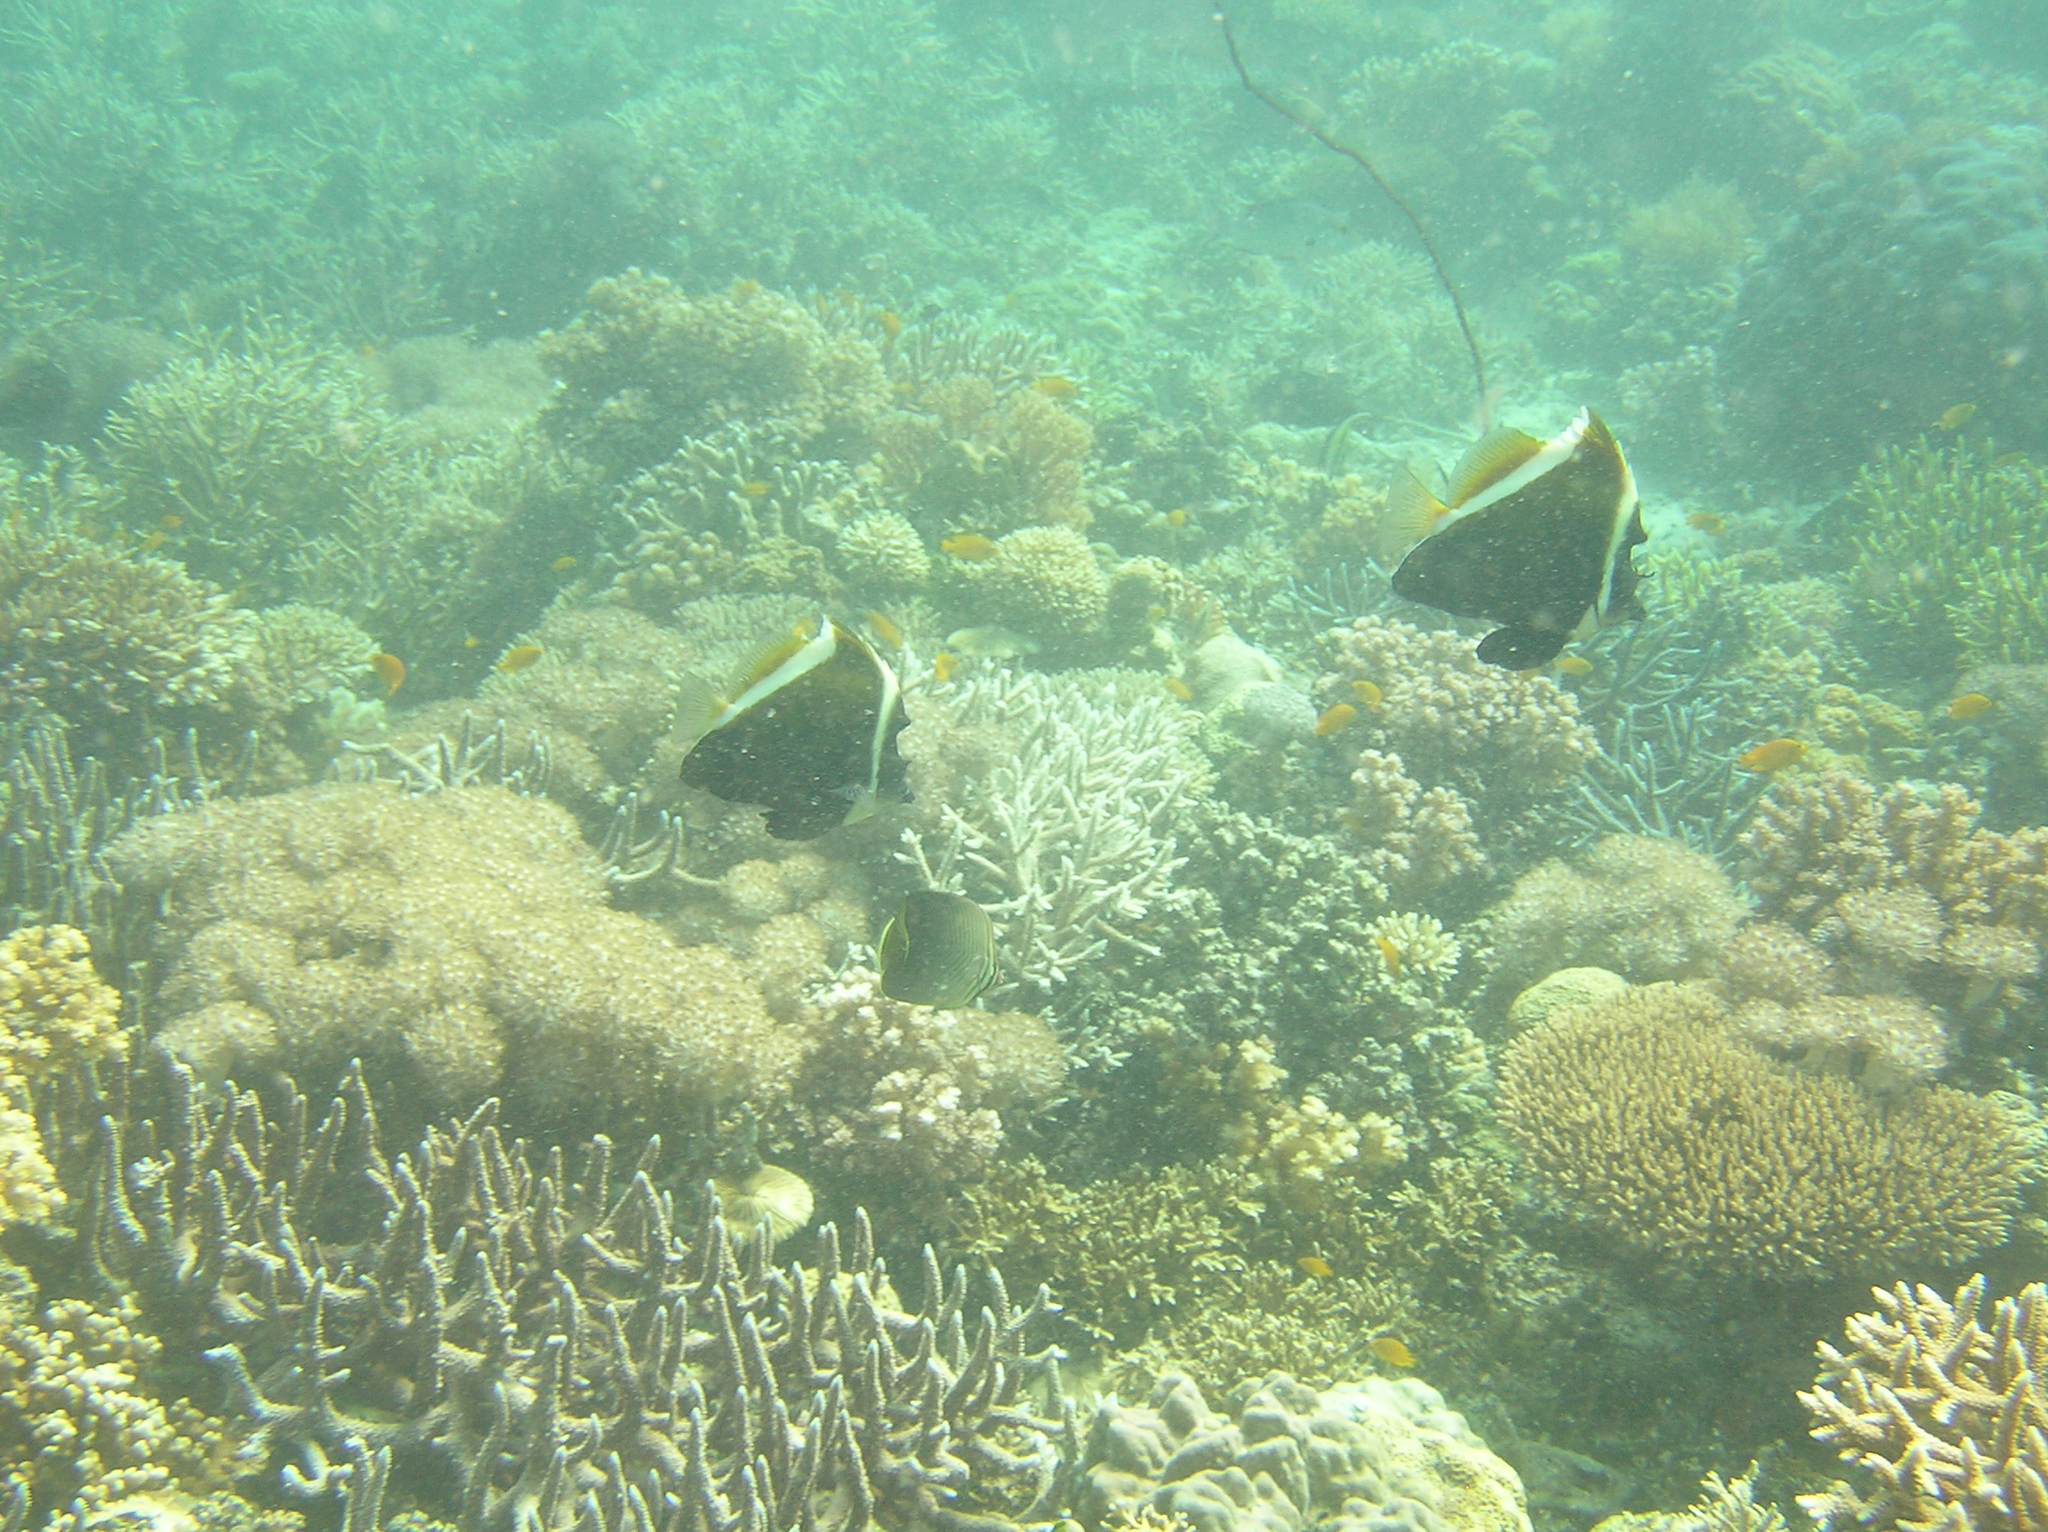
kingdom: Animalia
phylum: Chordata
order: Perciformes
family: Chaetodontidae
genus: Heniochus
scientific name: Heniochus varius
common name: Horned bannerfish
